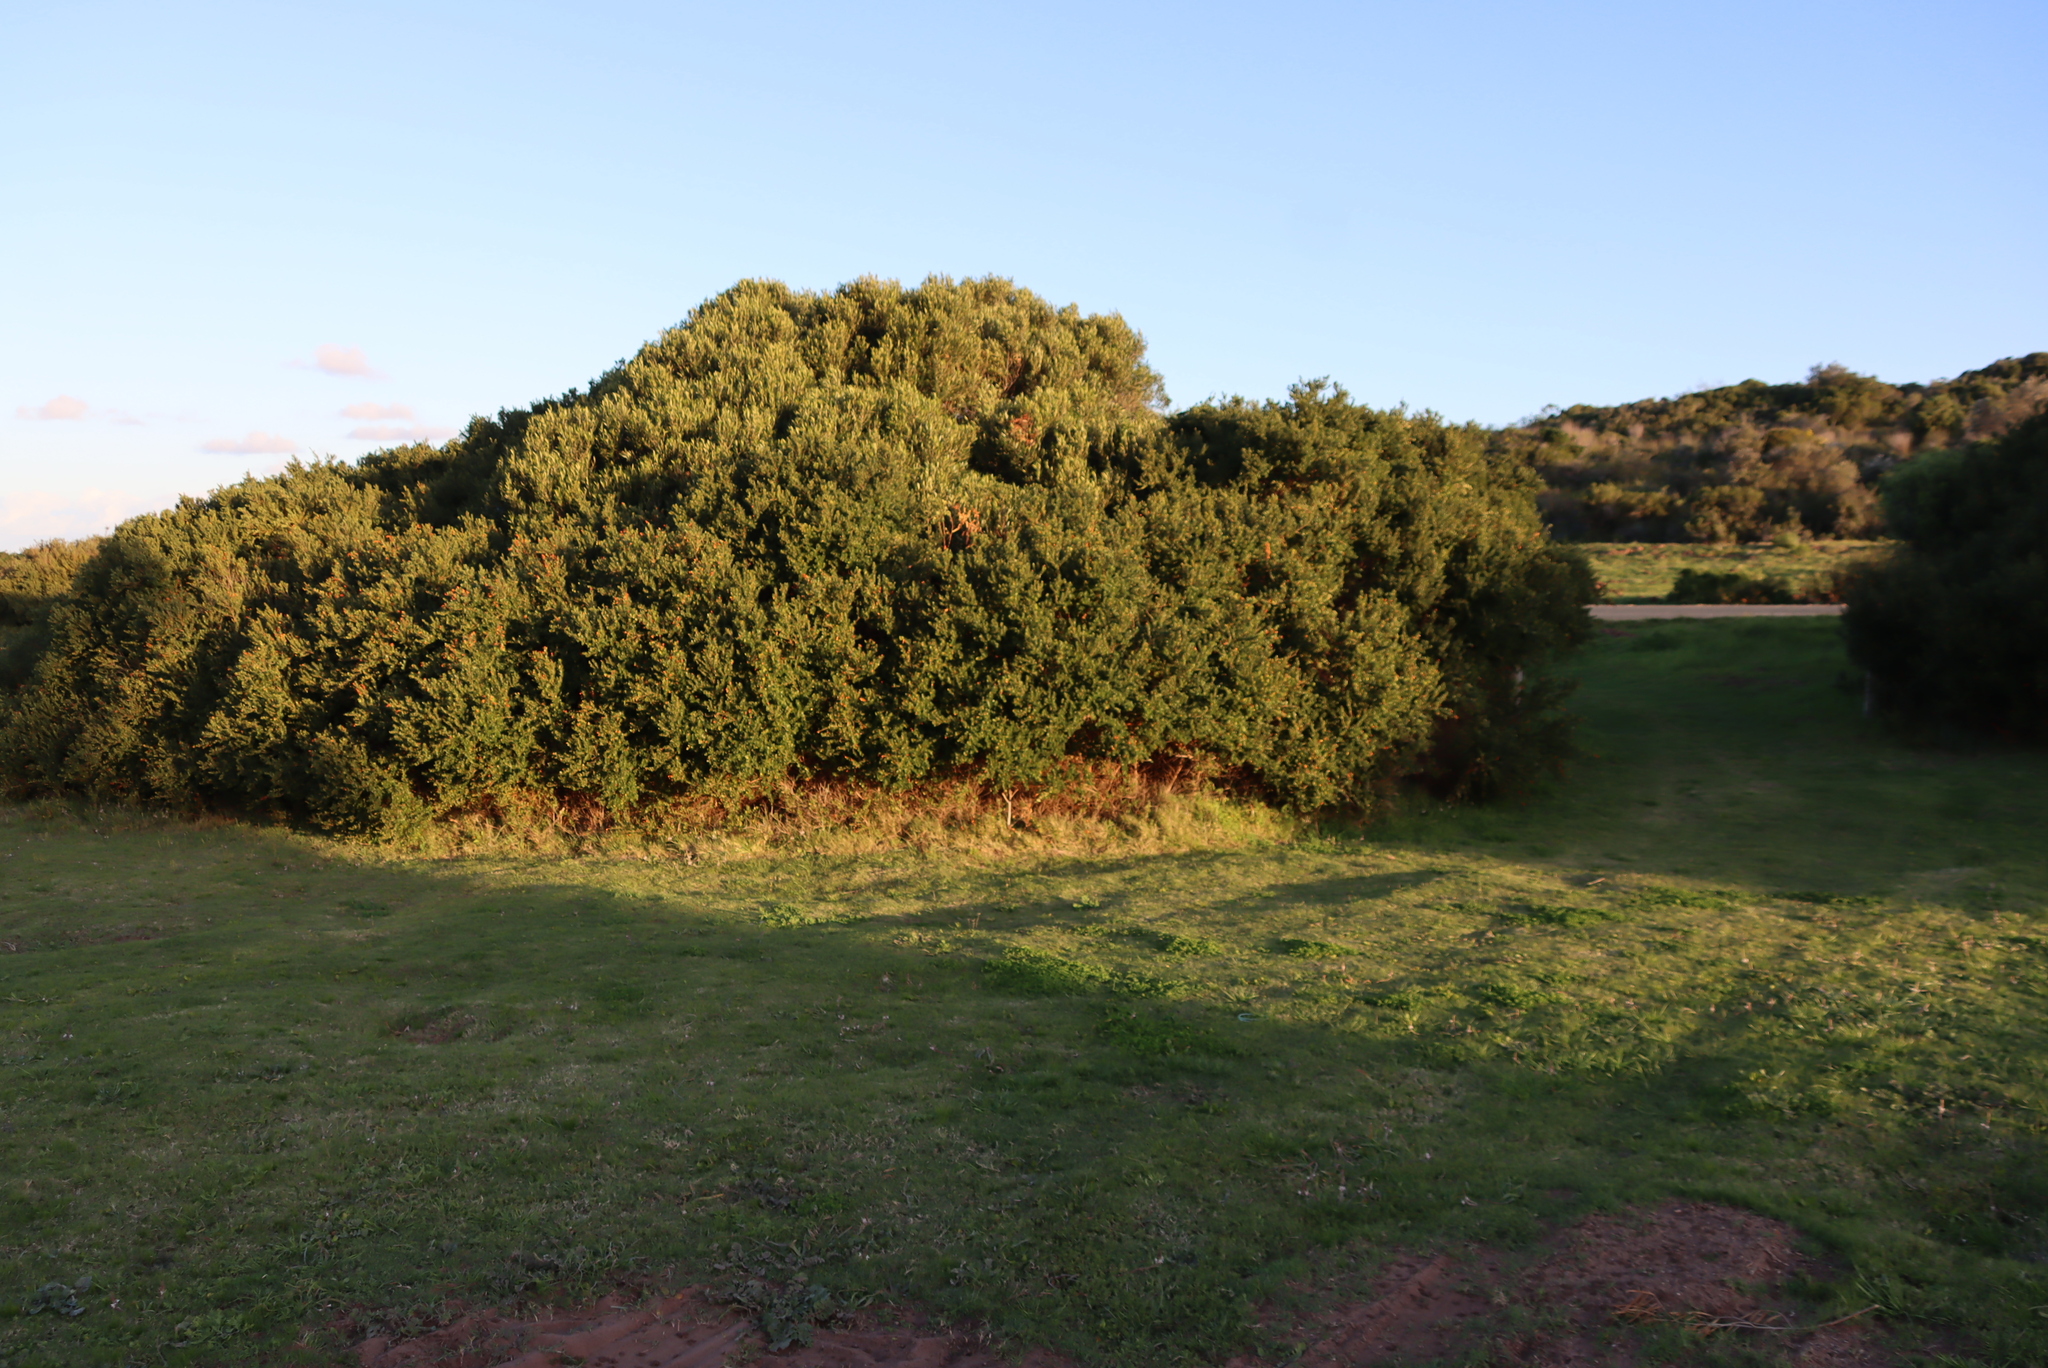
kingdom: Plantae
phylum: Tracheophyta
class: Magnoliopsida
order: Sapindales
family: Anacardiaceae
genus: Searsia
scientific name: Searsia crenata
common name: Crowberry
